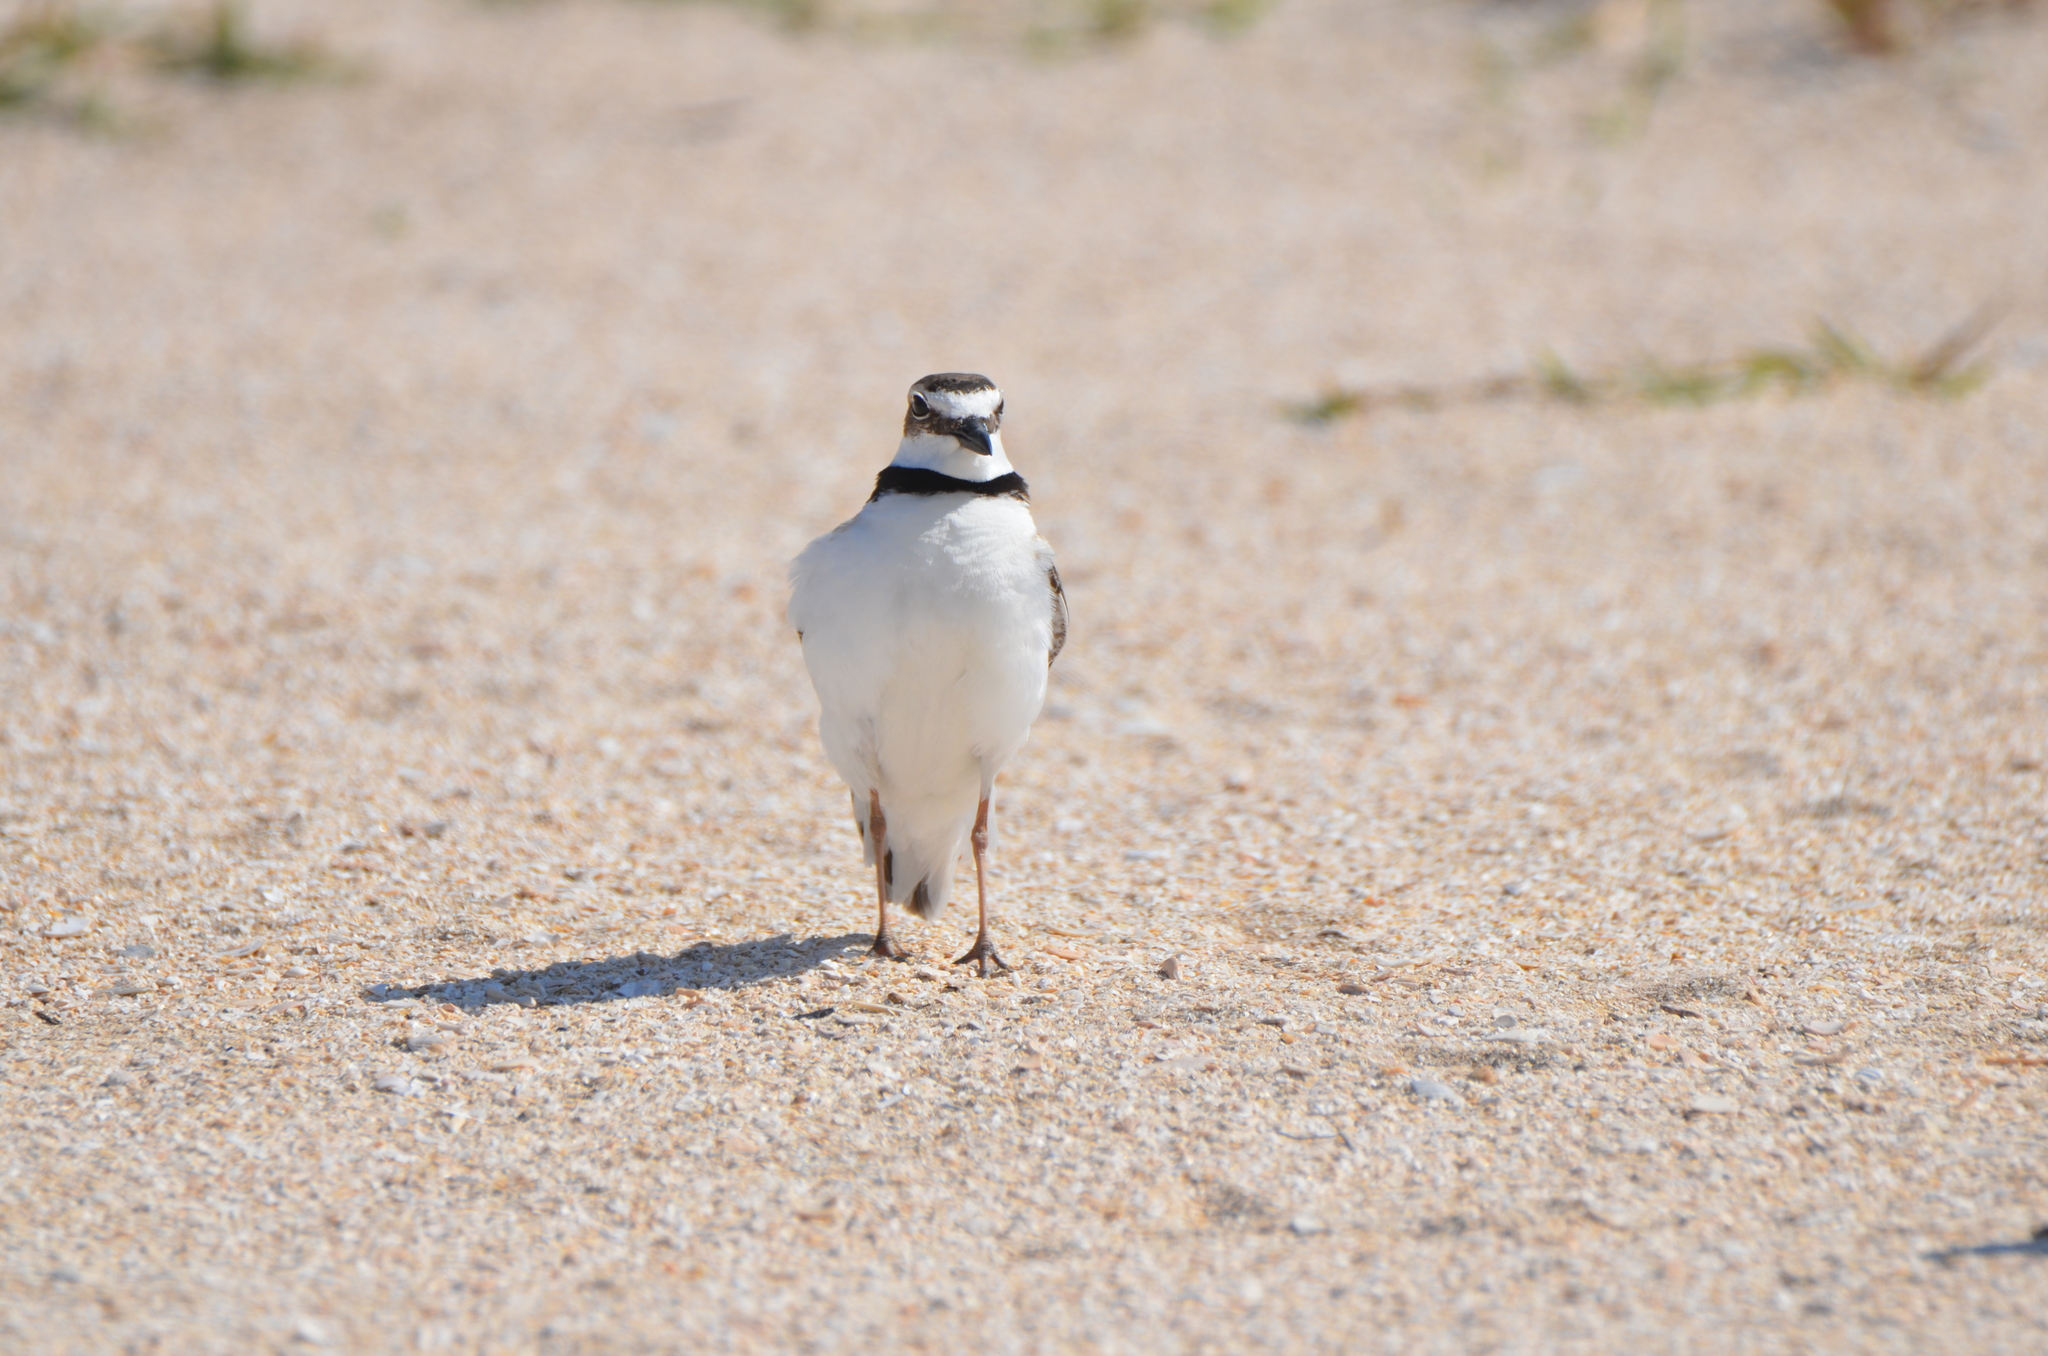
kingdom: Animalia
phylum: Chordata
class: Aves
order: Charadriiformes
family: Charadriidae
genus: Anarhynchus
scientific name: Anarhynchus
